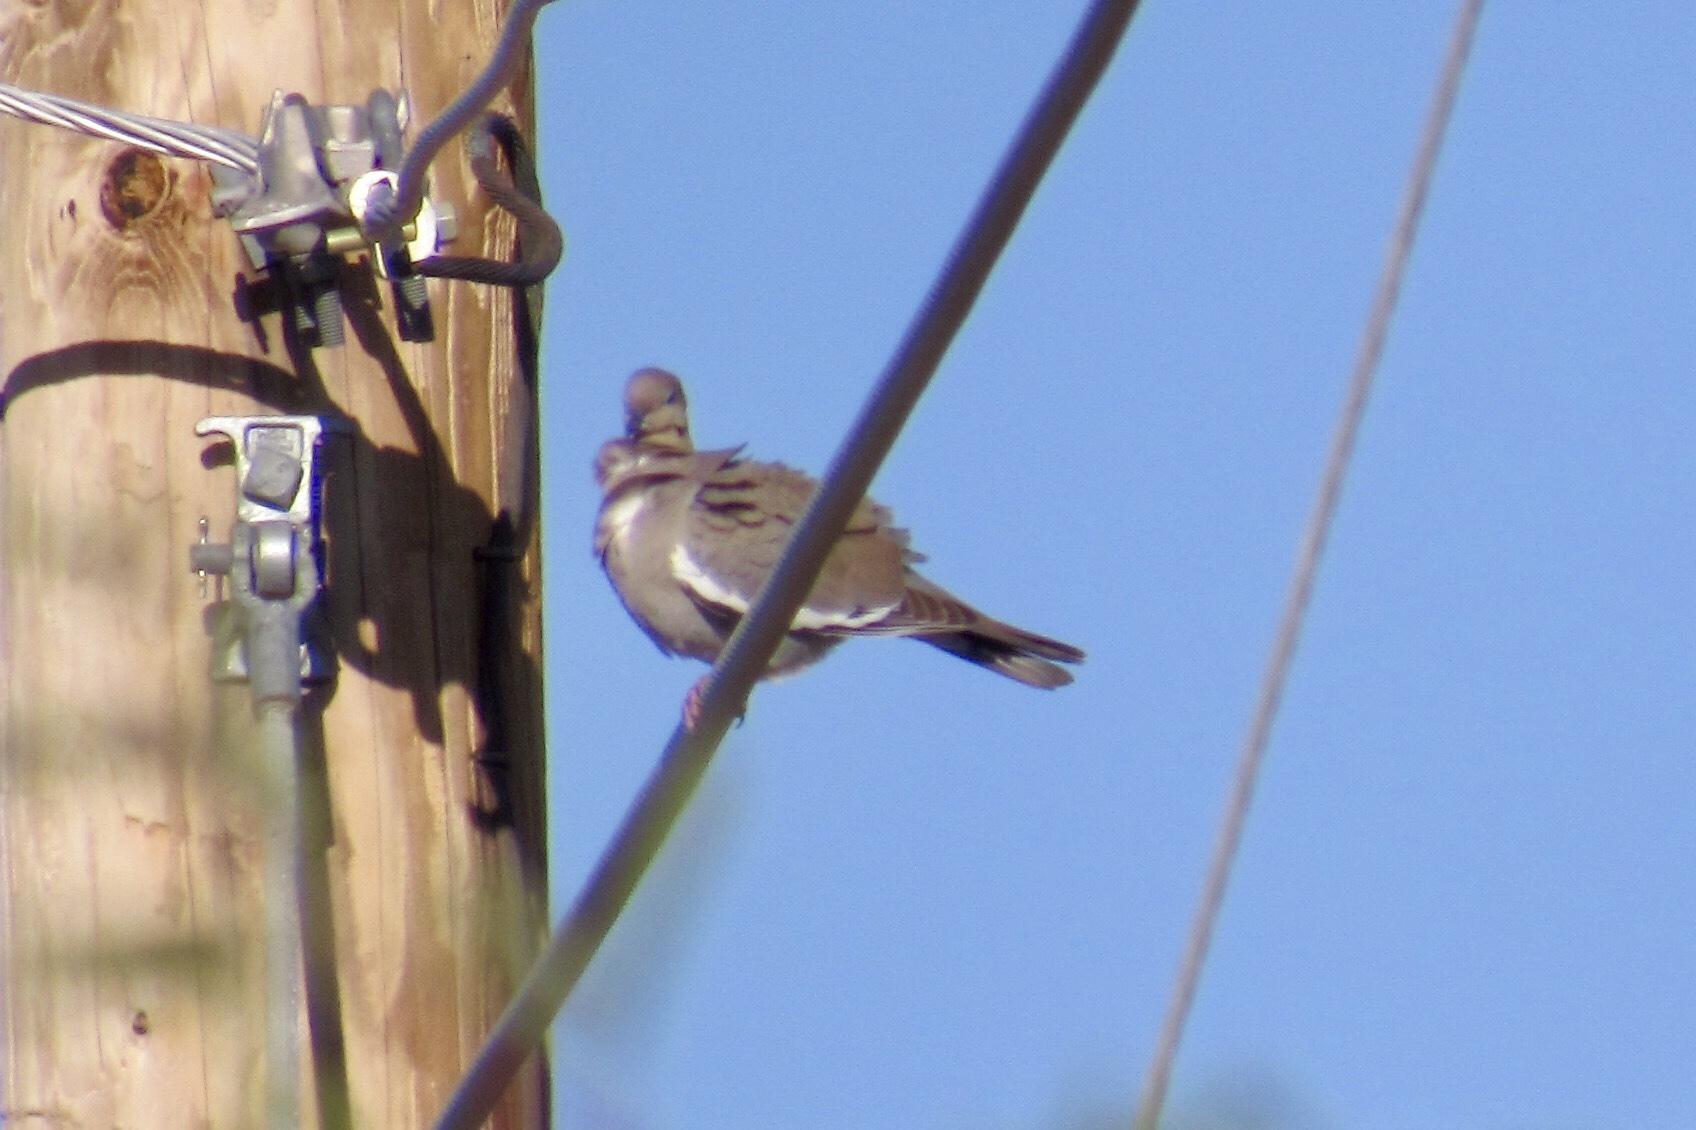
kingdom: Animalia
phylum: Chordata
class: Aves
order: Columbiformes
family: Columbidae
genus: Zenaida
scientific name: Zenaida asiatica
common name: White-winged dove
